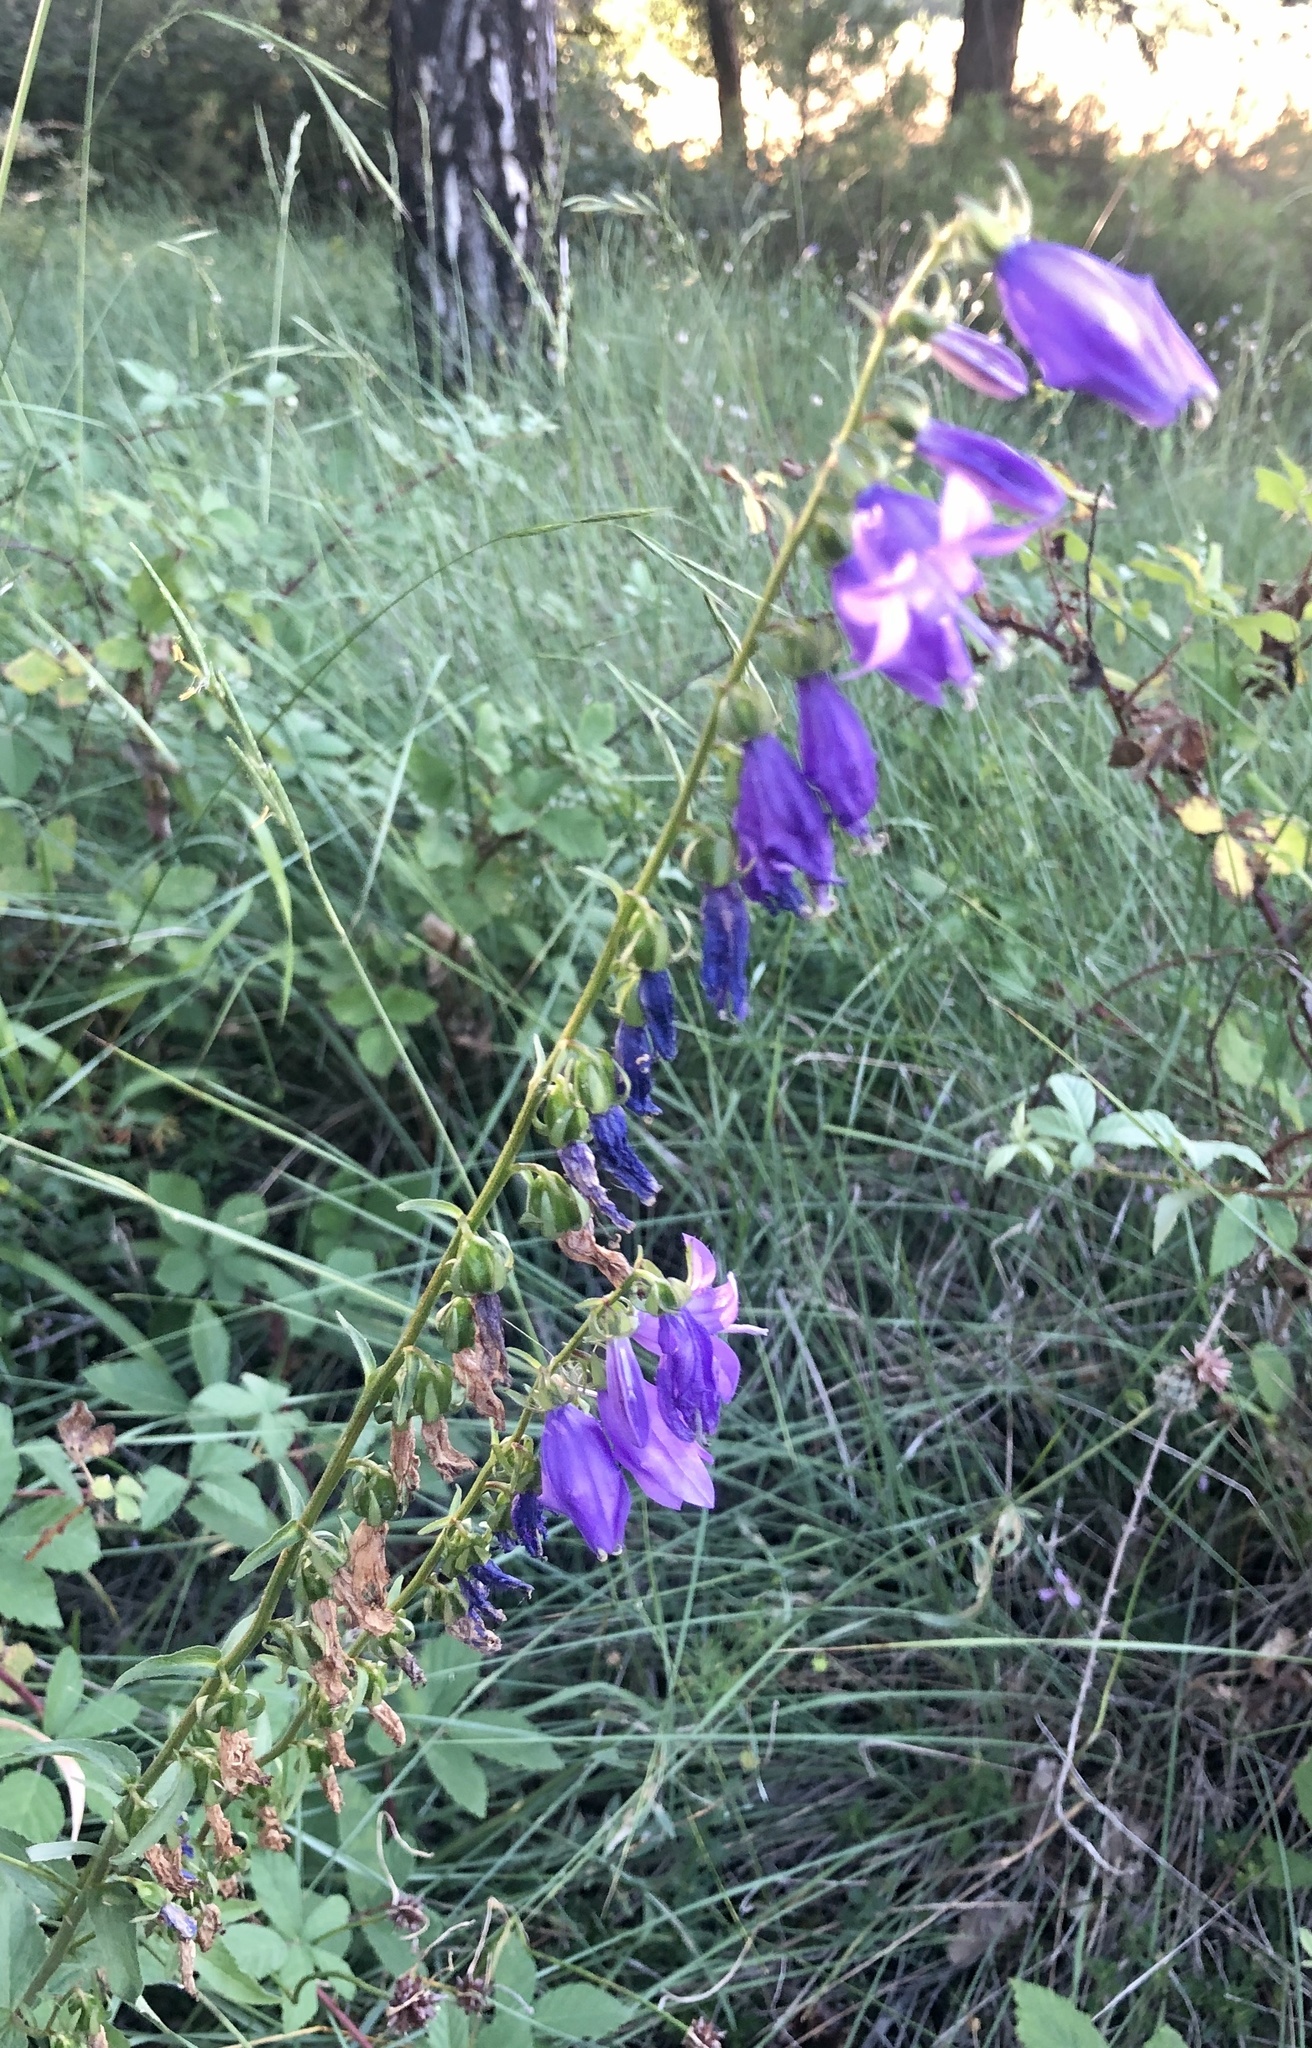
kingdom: Plantae
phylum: Tracheophyta
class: Magnoliopsida
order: Asterales
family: Campanulaceae
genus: Campanula
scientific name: Campanula rapunculoides
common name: Creeping bellflower
